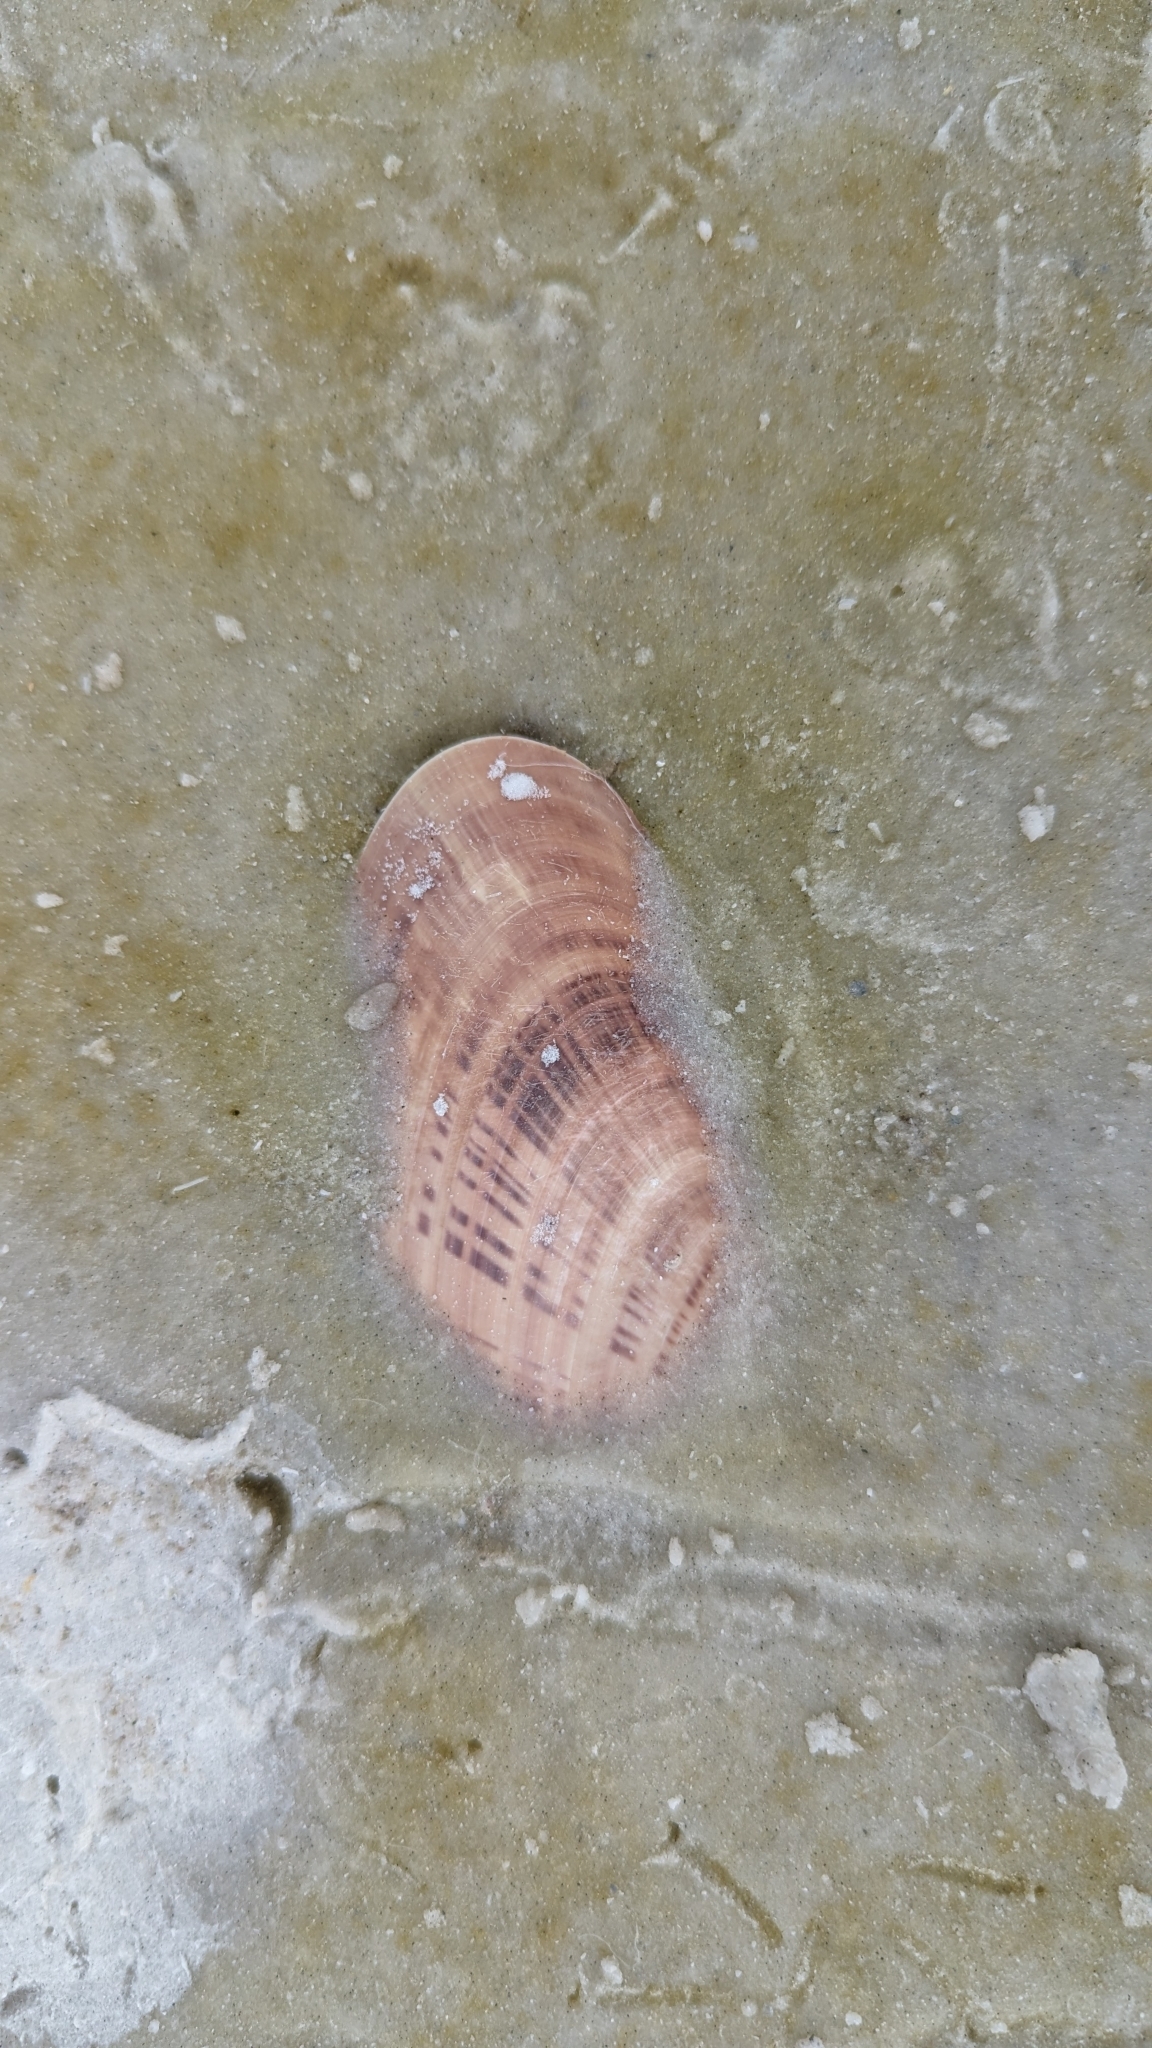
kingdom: Animalia
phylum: Mollusca
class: Bivalvia
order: Venerida
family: Veneridae
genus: Macrocallista
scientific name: Macrocallista nimbosa
